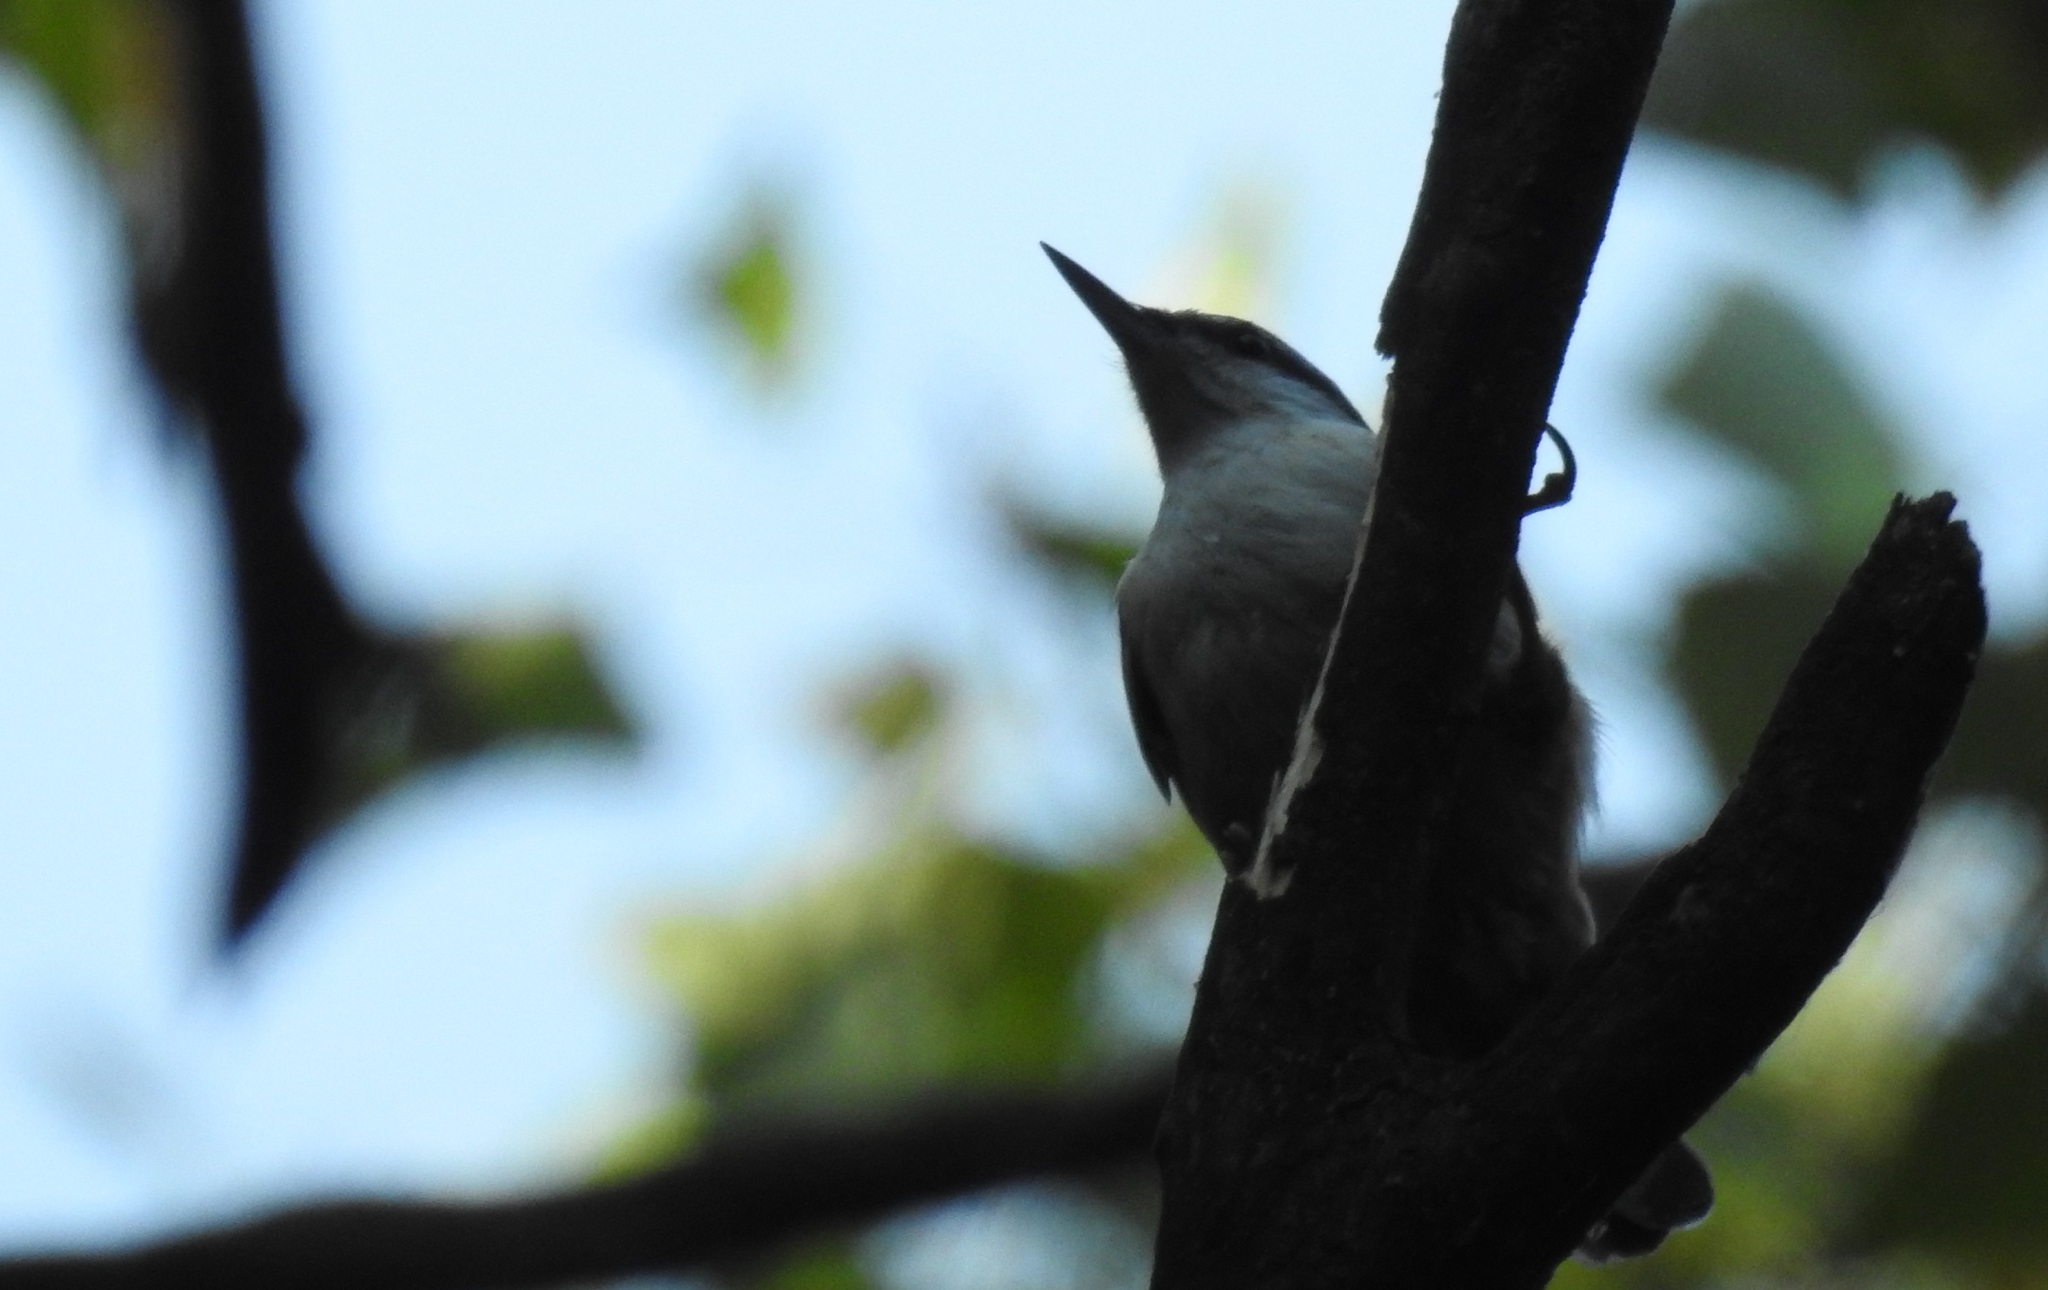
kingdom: Animalia
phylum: Chordata
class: Aves
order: Passeriformes
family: Sittidae
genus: Sitta
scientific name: Sitta europaea
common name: Eurasian nuthatch
